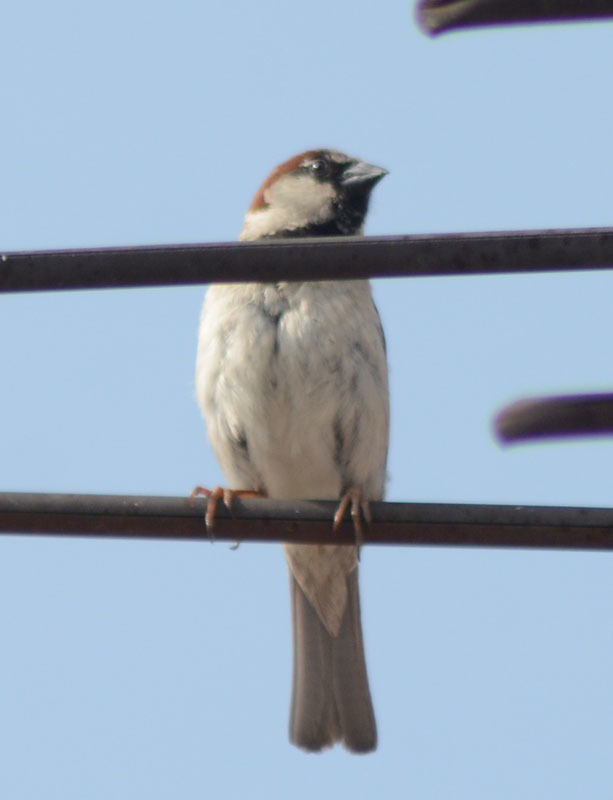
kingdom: Animalia
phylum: Chordata
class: Aves
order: Passeriformes
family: Passeridae
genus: Passer
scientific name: Passer domesticus
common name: House sparrow
